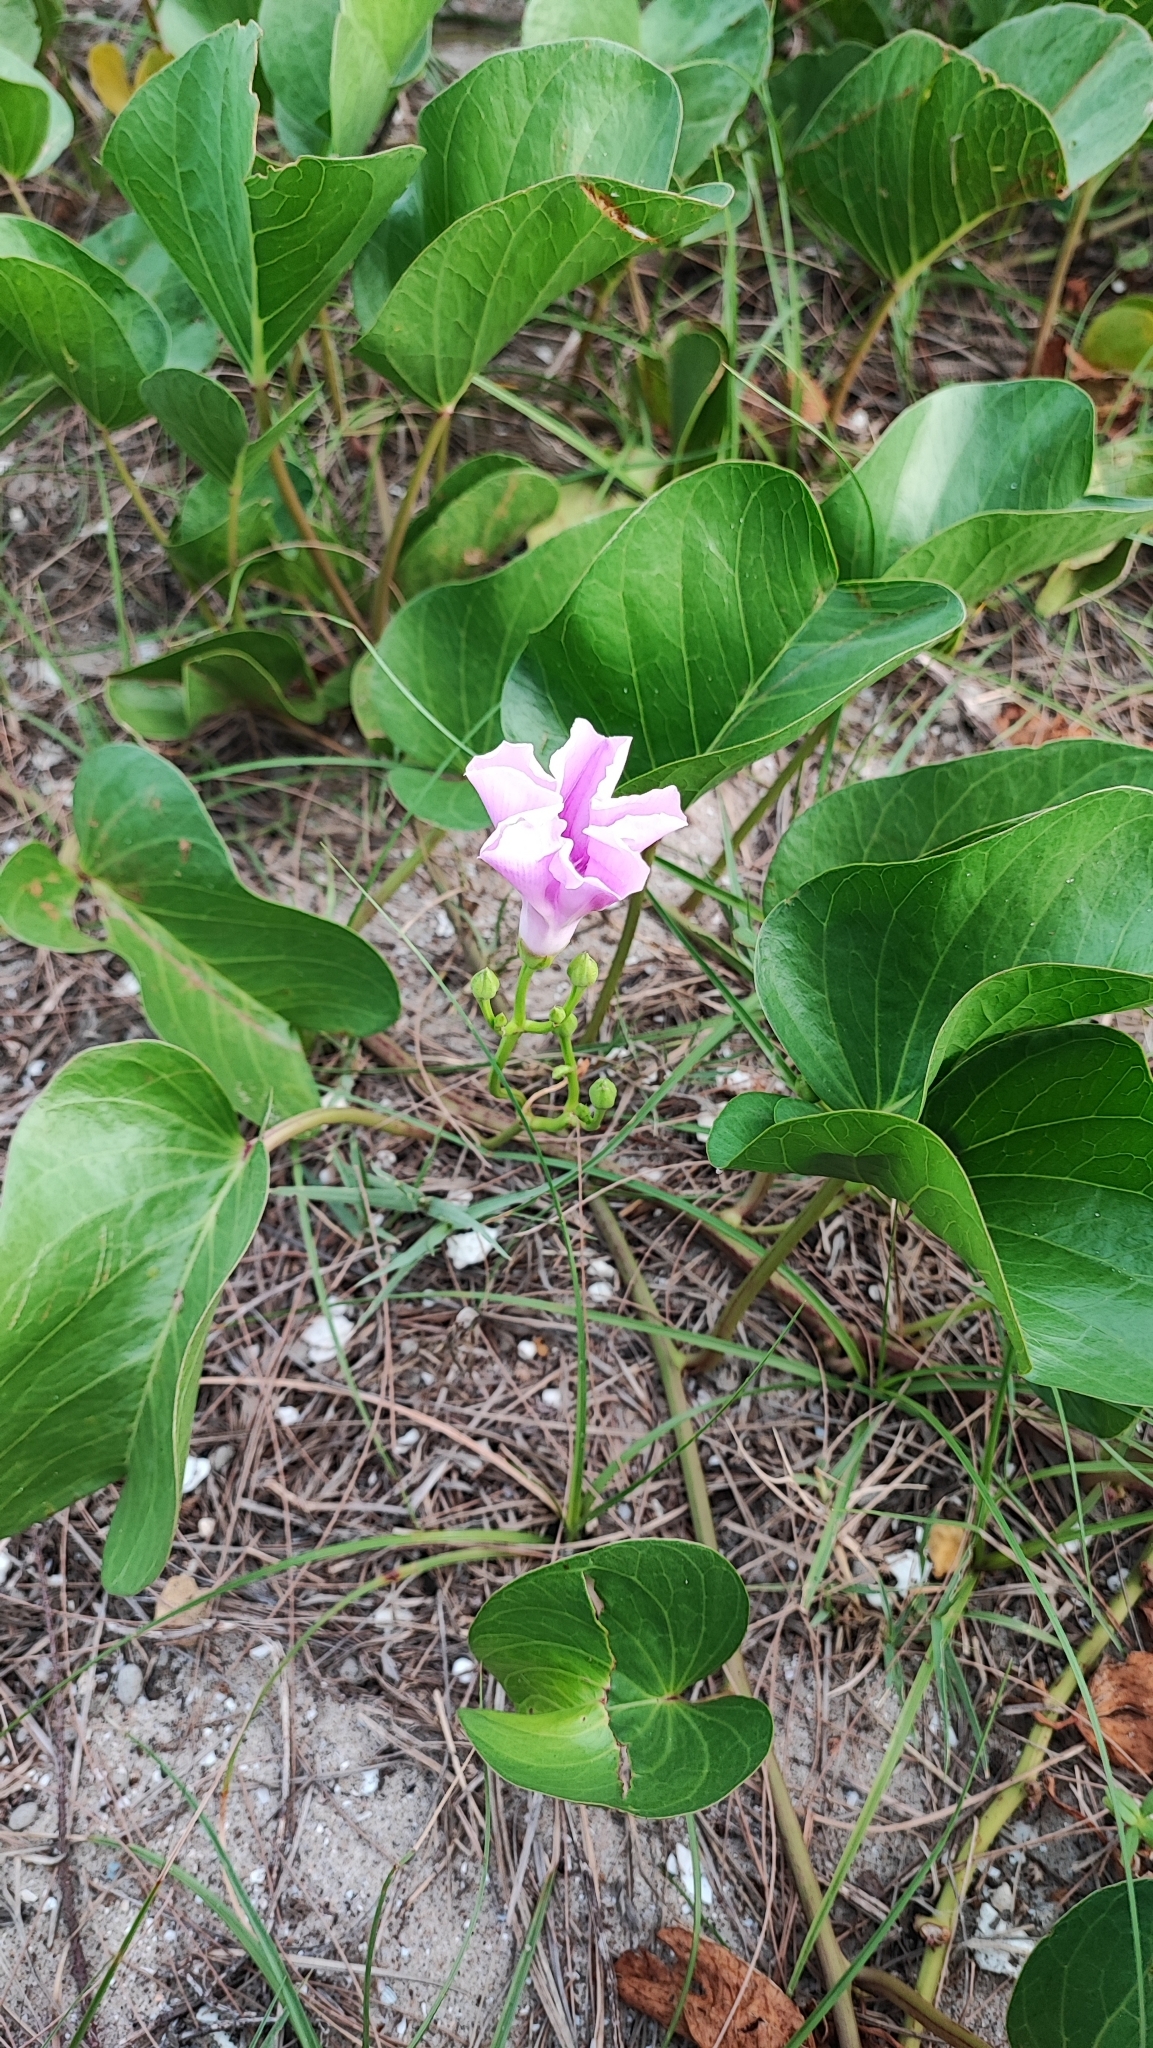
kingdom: Plantae
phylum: Tracheophyta
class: Magnoliopsida
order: Solanales
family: Convolvulaceae
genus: Ipomoea
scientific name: Ipomoea pes-caprae
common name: Beach morning glory
